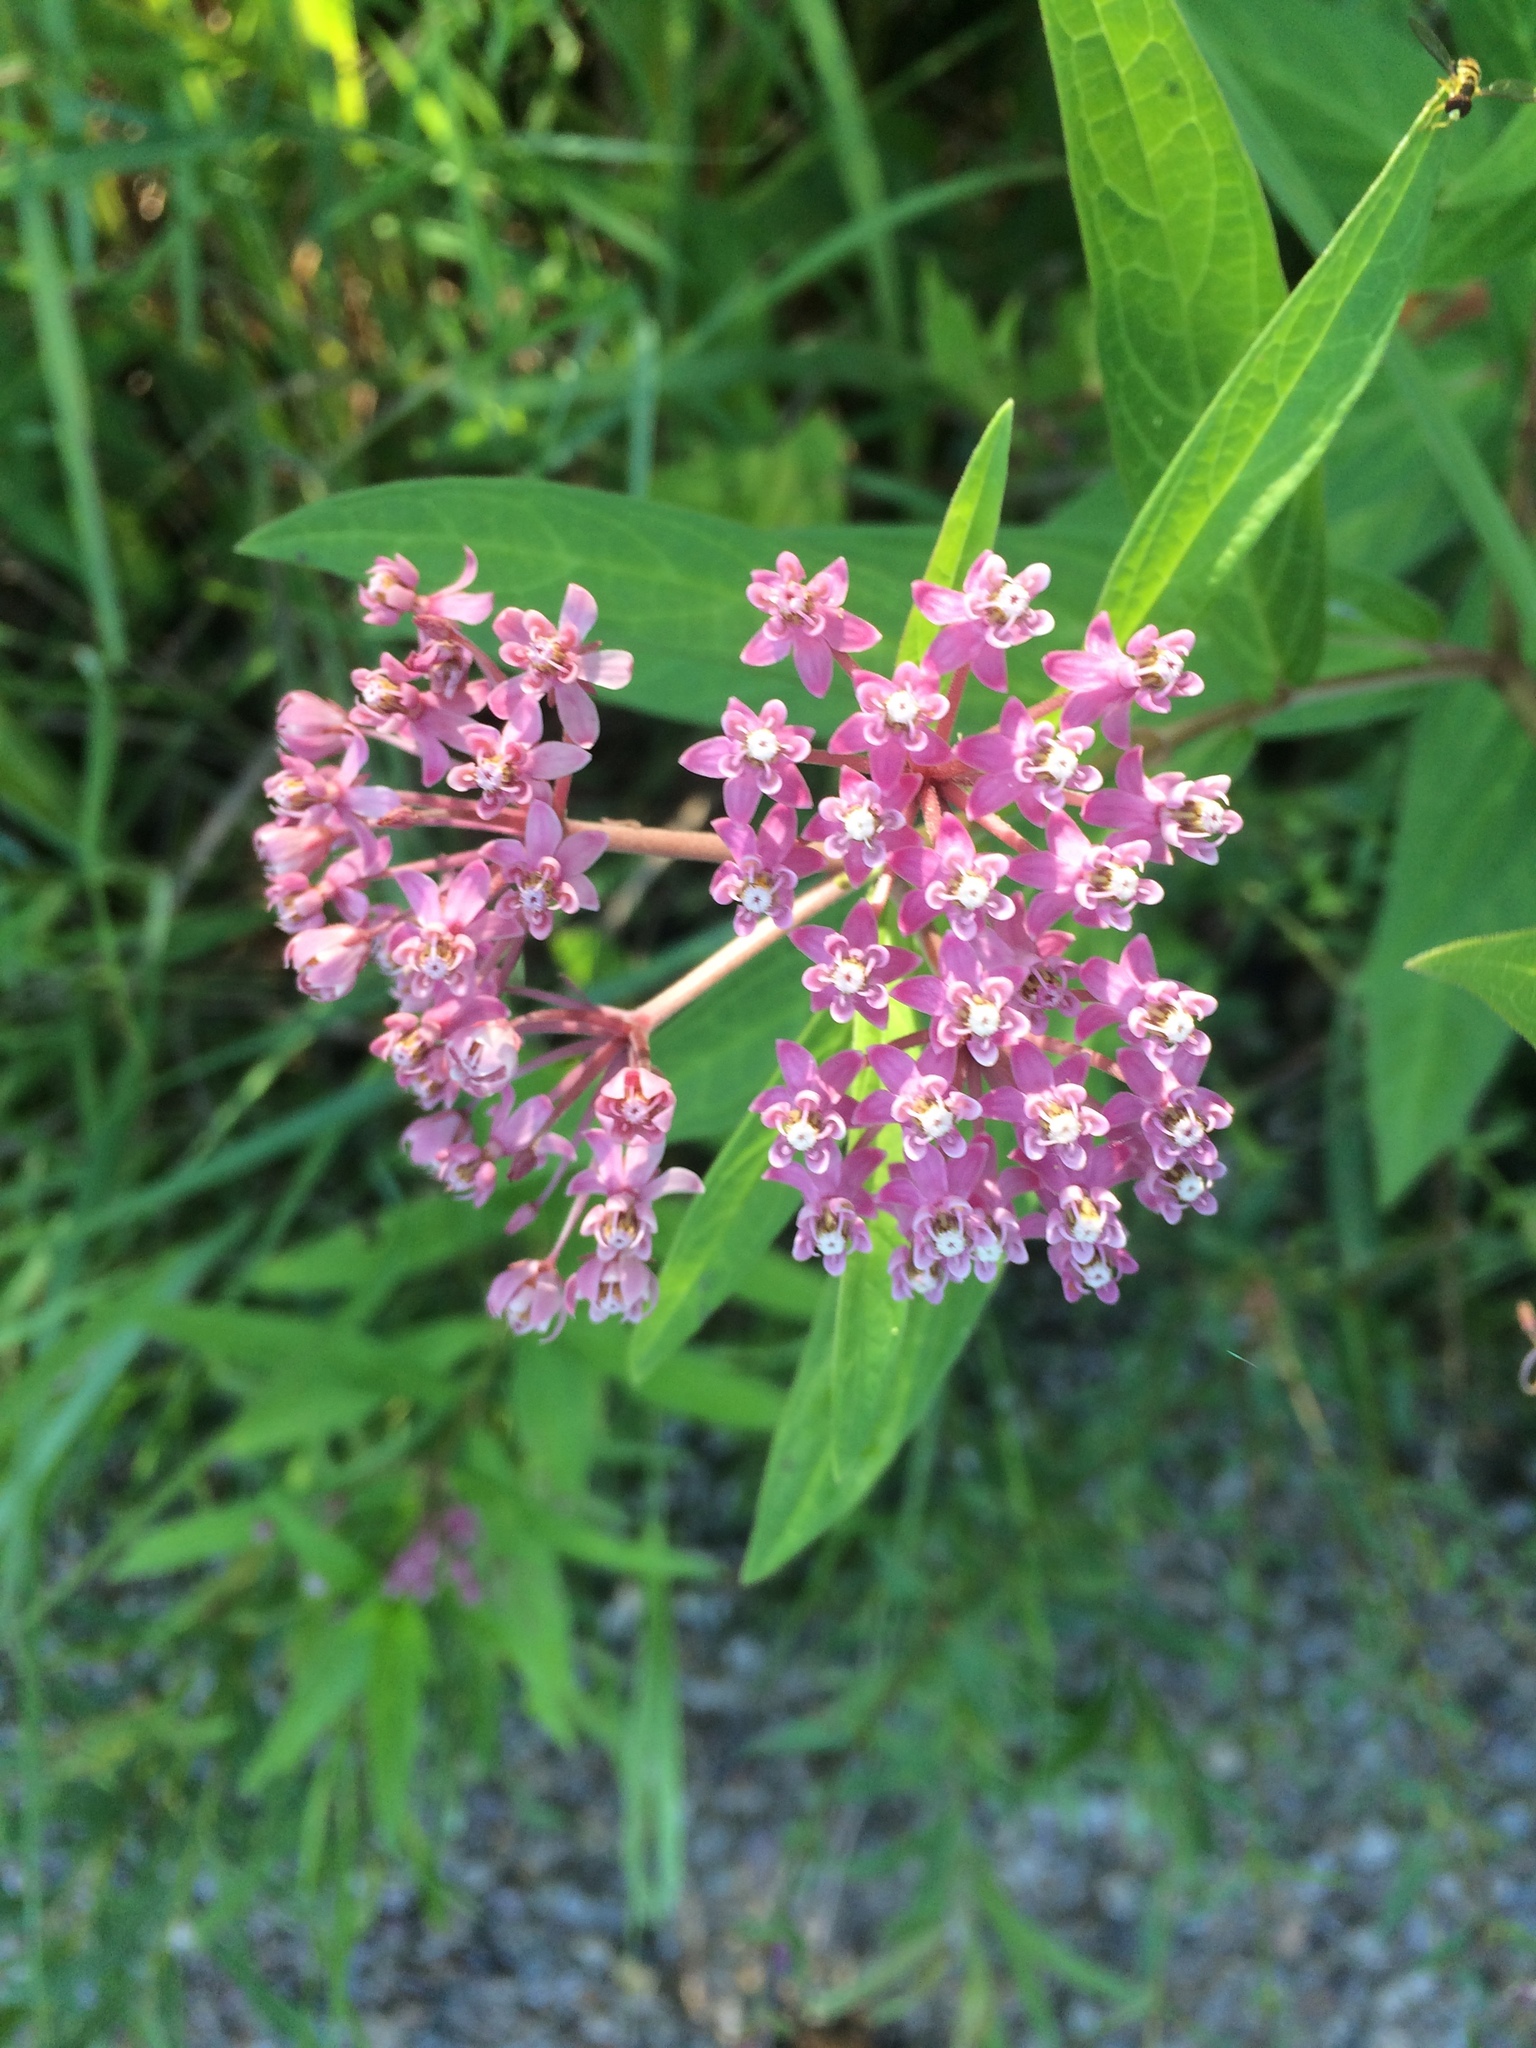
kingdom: Plantae
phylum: Tracheophyta
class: Magnoliopsida
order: Gentianales
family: Apocynaceae
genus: Asclepias
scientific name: Asclepias incarnata
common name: Swamp milkweed
